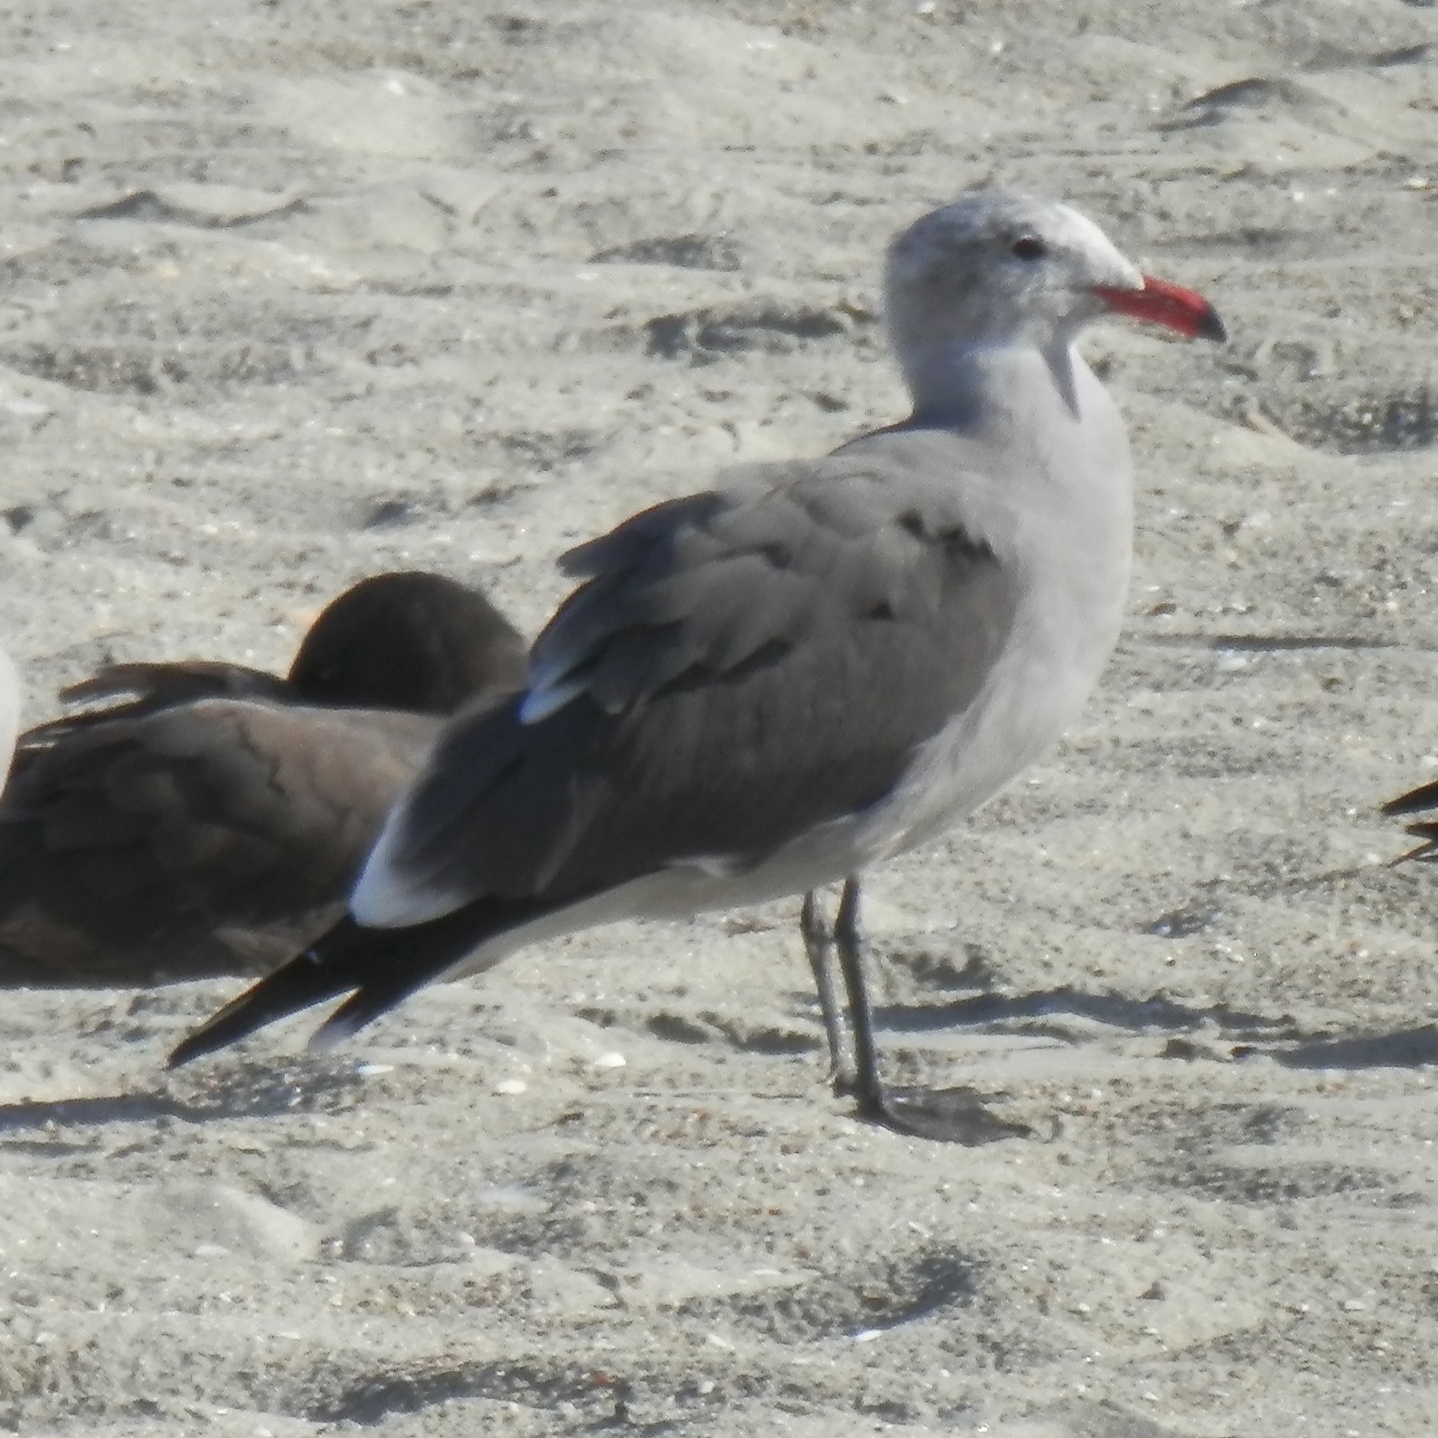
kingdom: Animalia
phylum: Chordata
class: Aves
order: Charadriiformes
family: Laridae
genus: Larus
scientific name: Larus heermanni
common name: Heermann's gull
